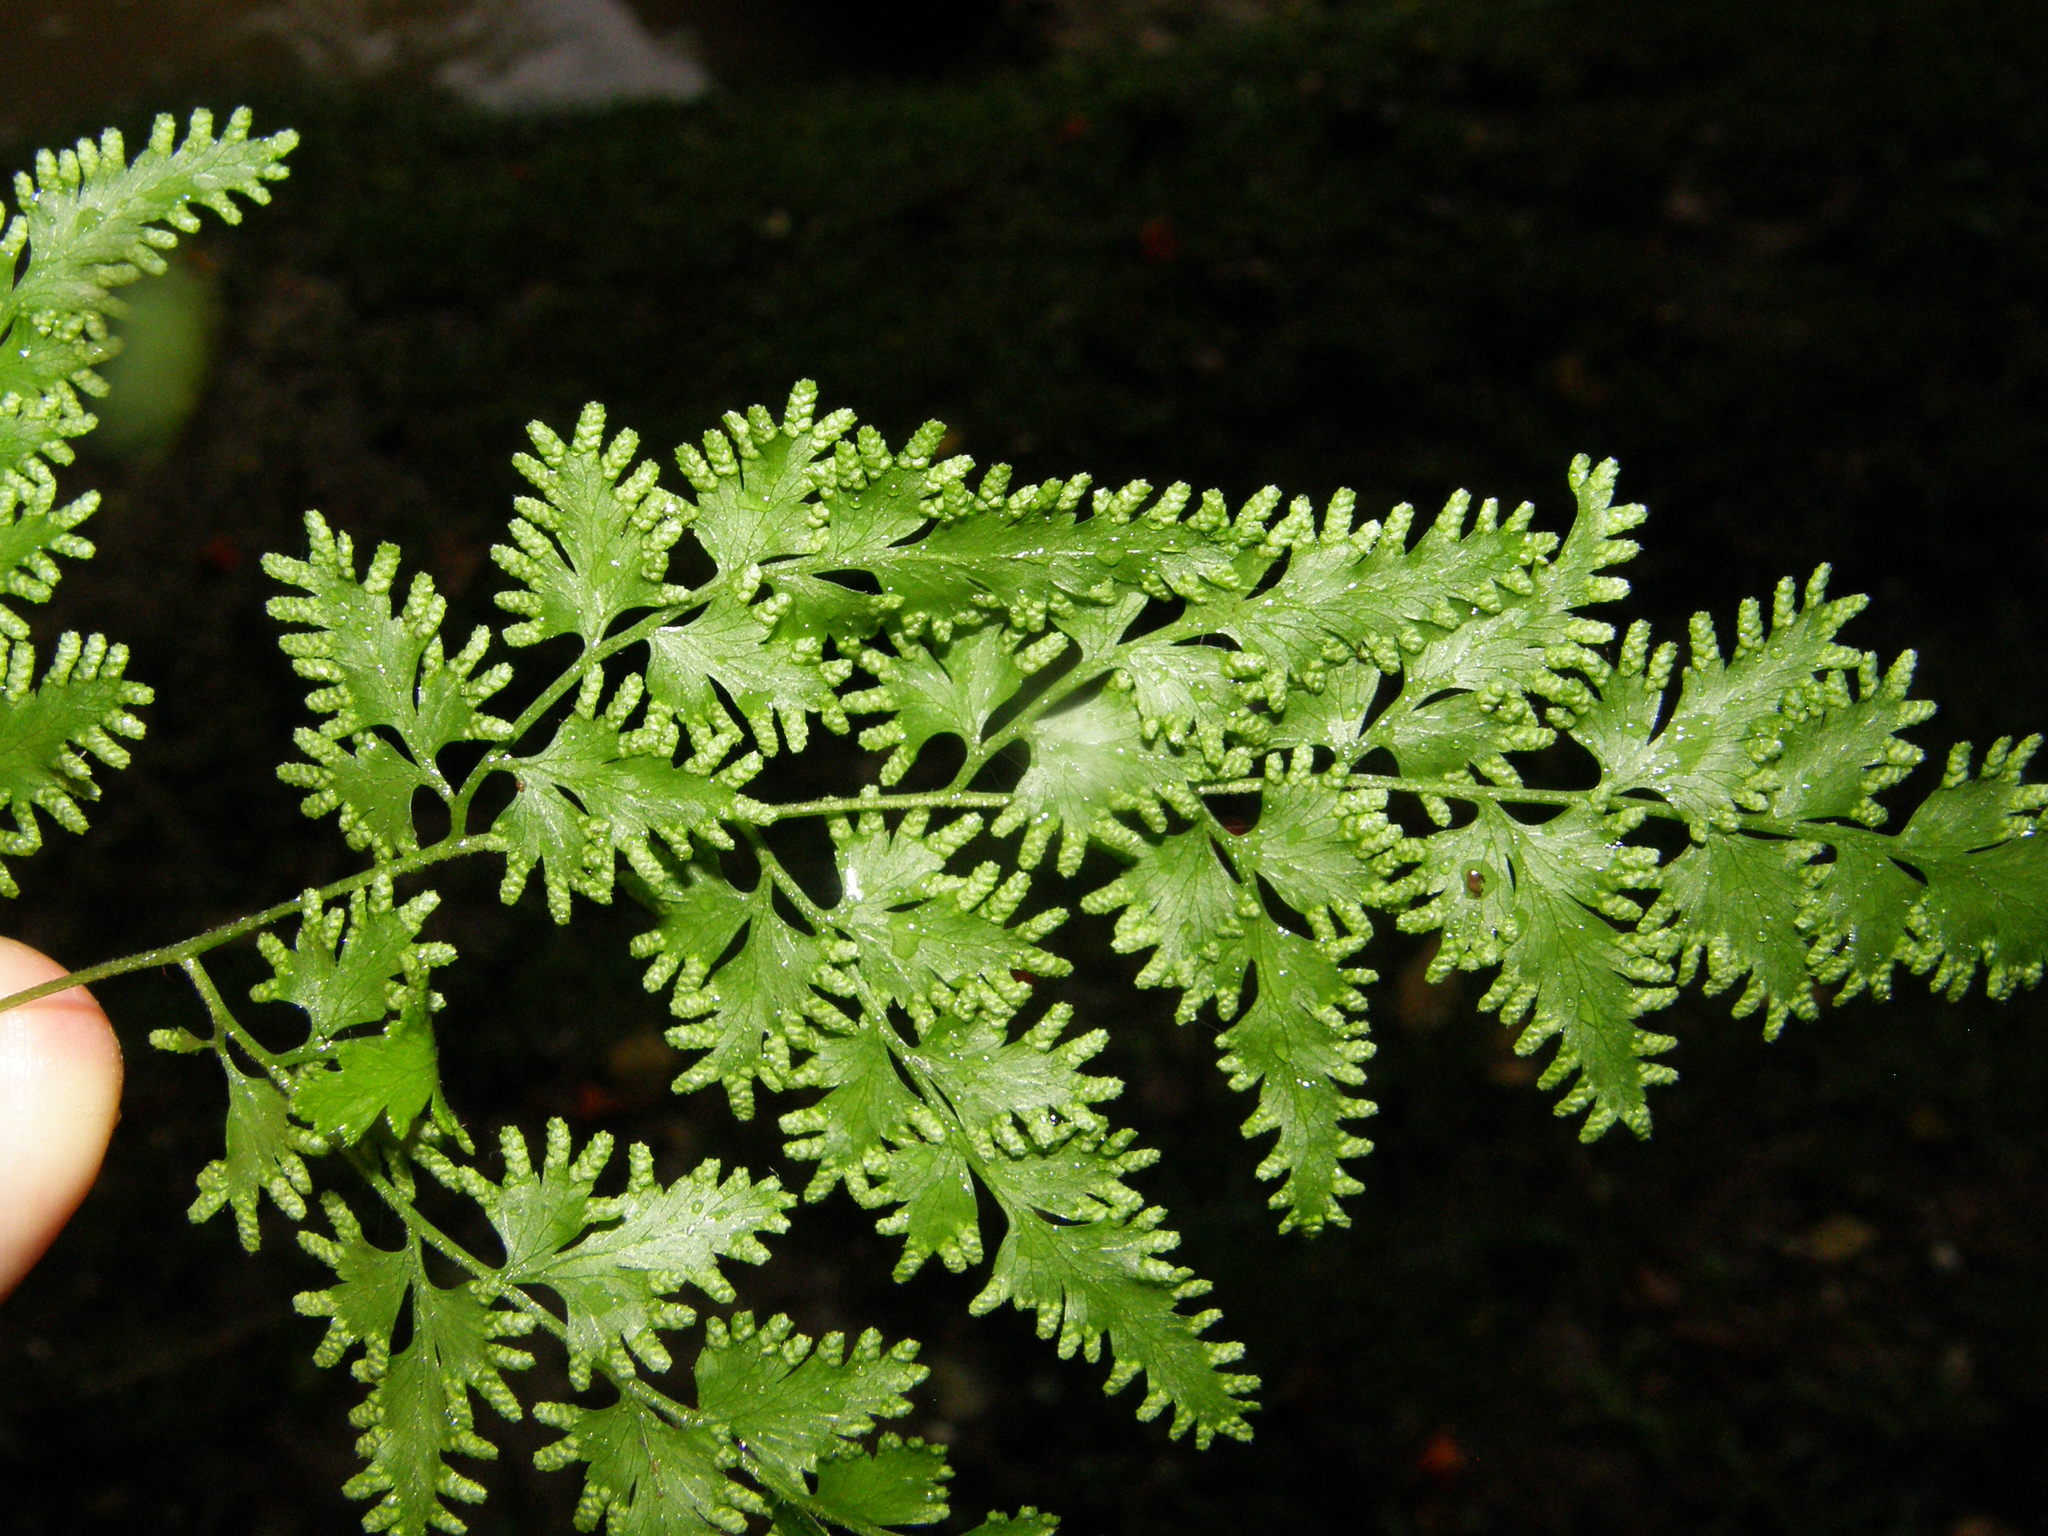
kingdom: Plantae
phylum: Tracheophyta
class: Polypodiopsida
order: Schizaeales
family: Lygodiaceae
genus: Lygodium
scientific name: Lygodium japonicum
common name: Japanese climbing fern
